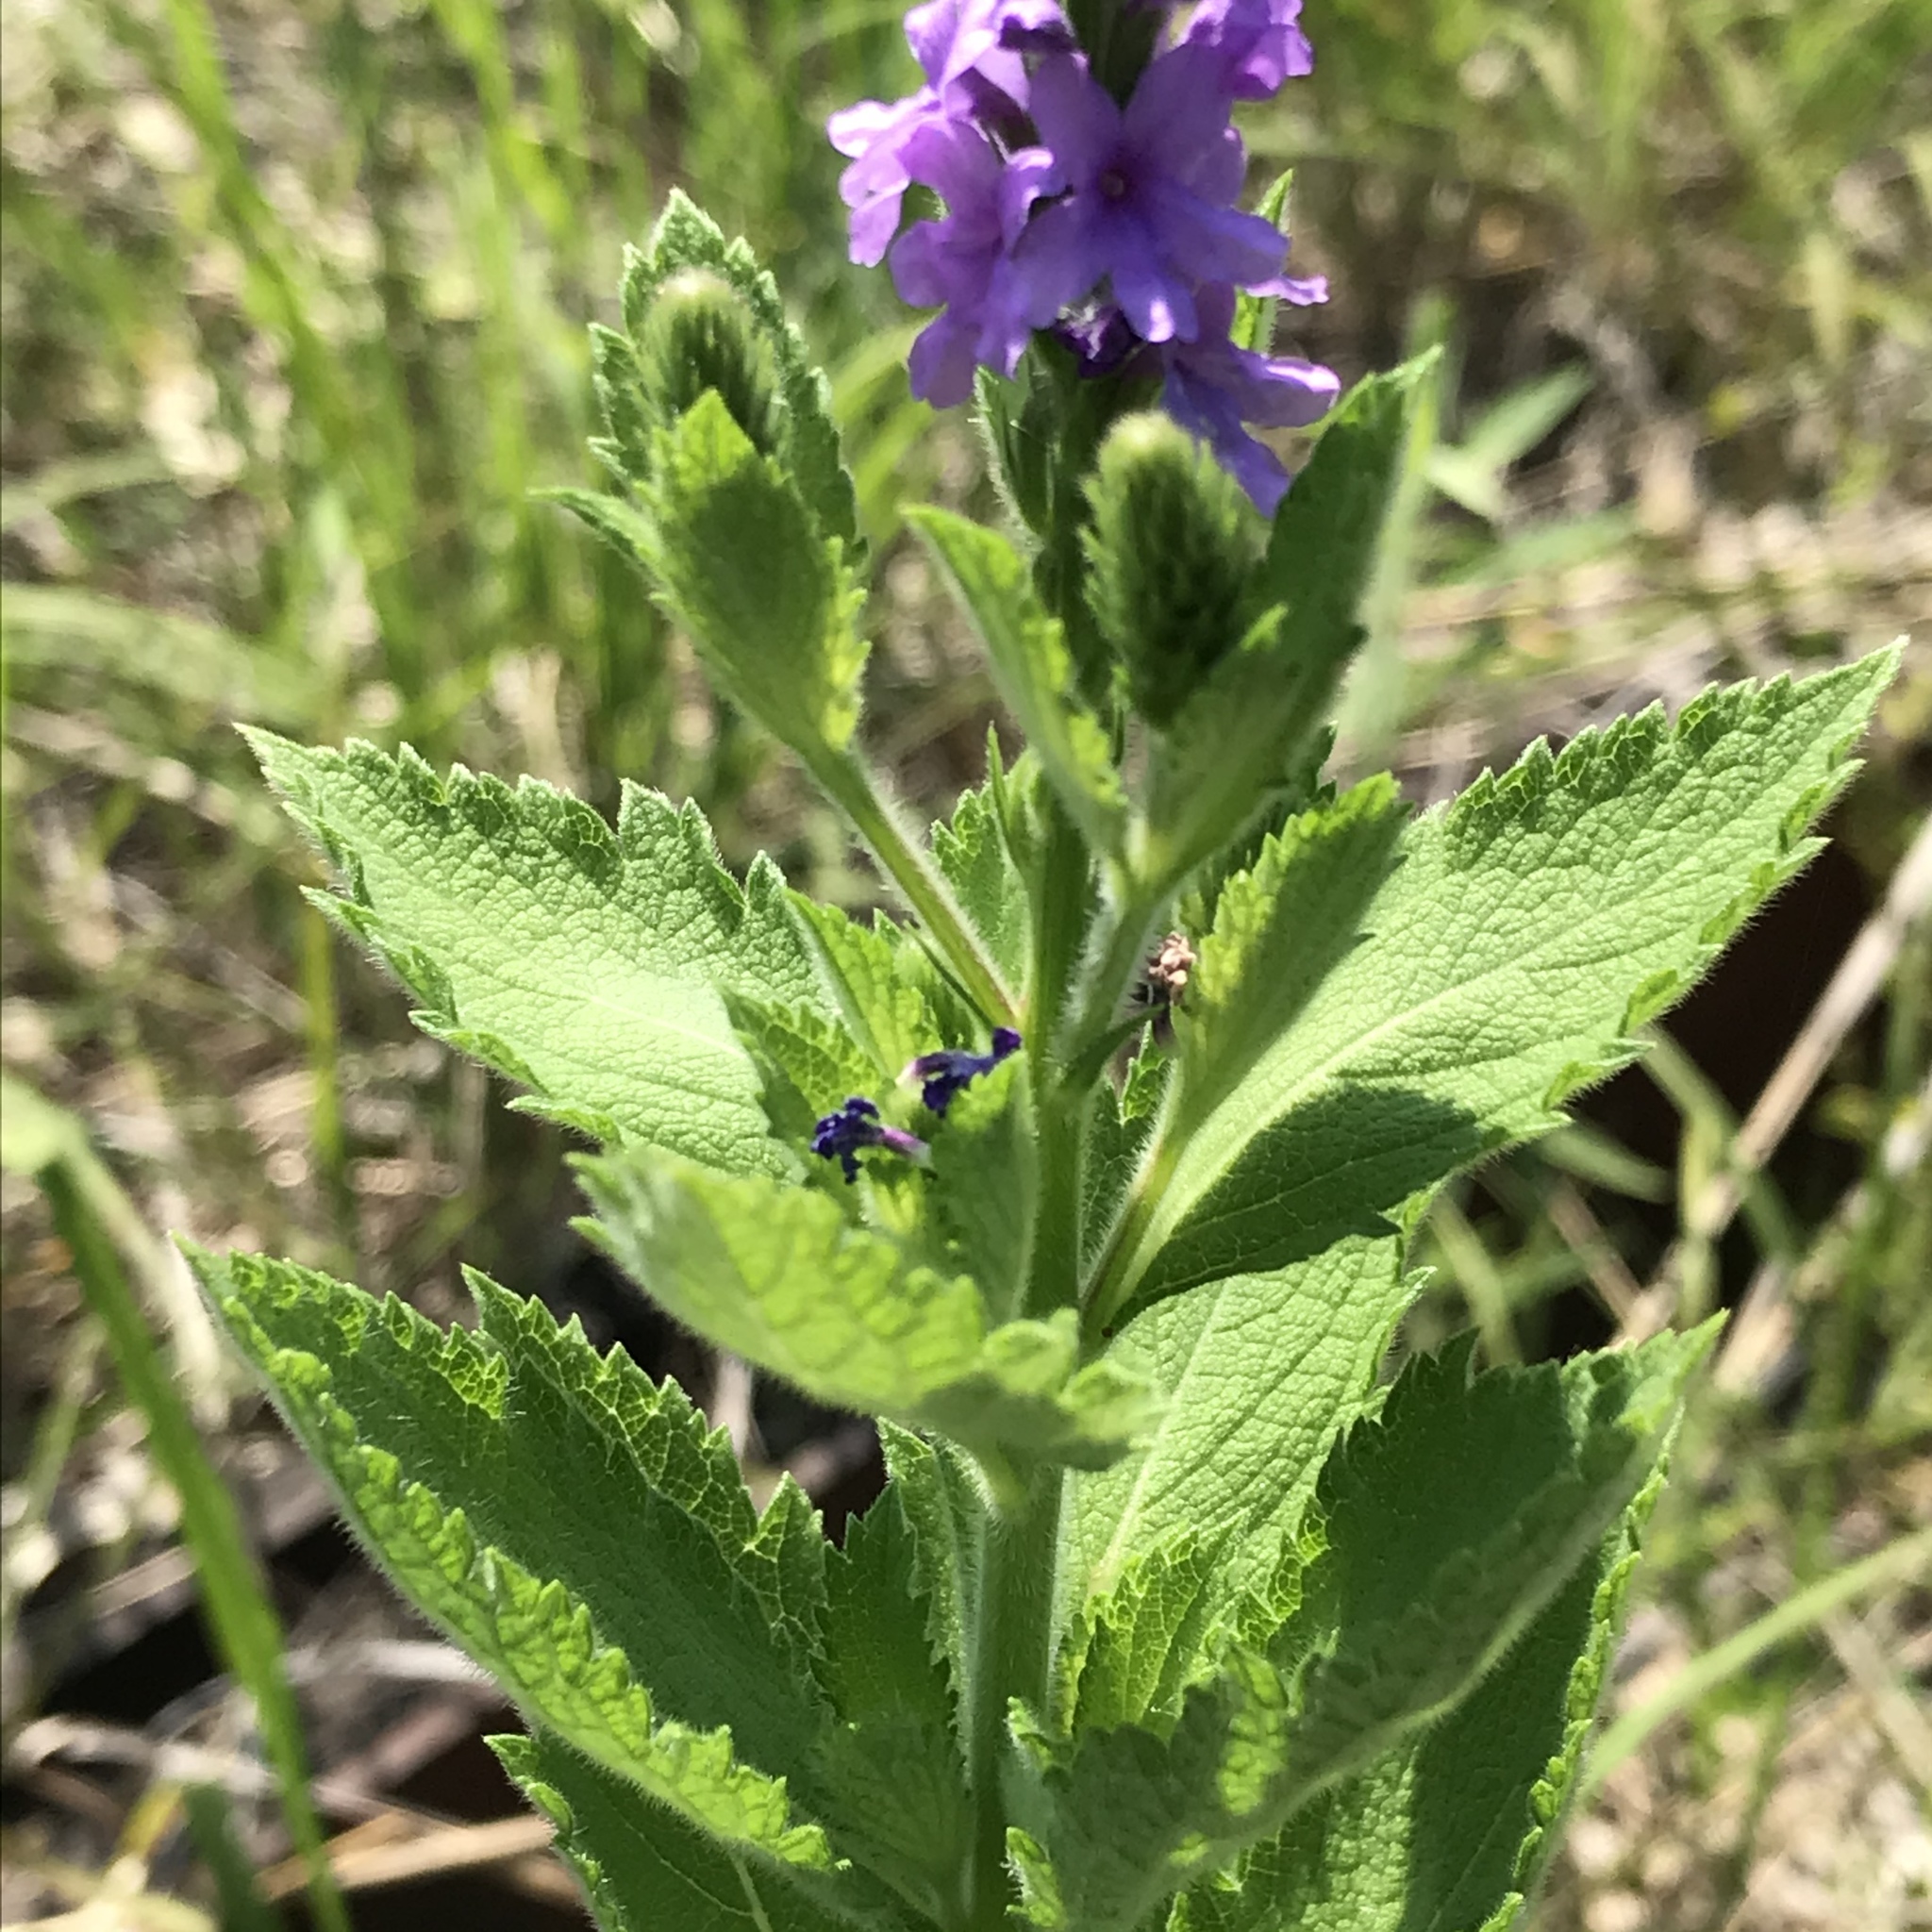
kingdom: Plantae
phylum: Tracheophyta
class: Magnoliopsida
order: Lamiales
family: Verbenaceae
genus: Verbena
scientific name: Verbena stricta
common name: Hoary vervain
